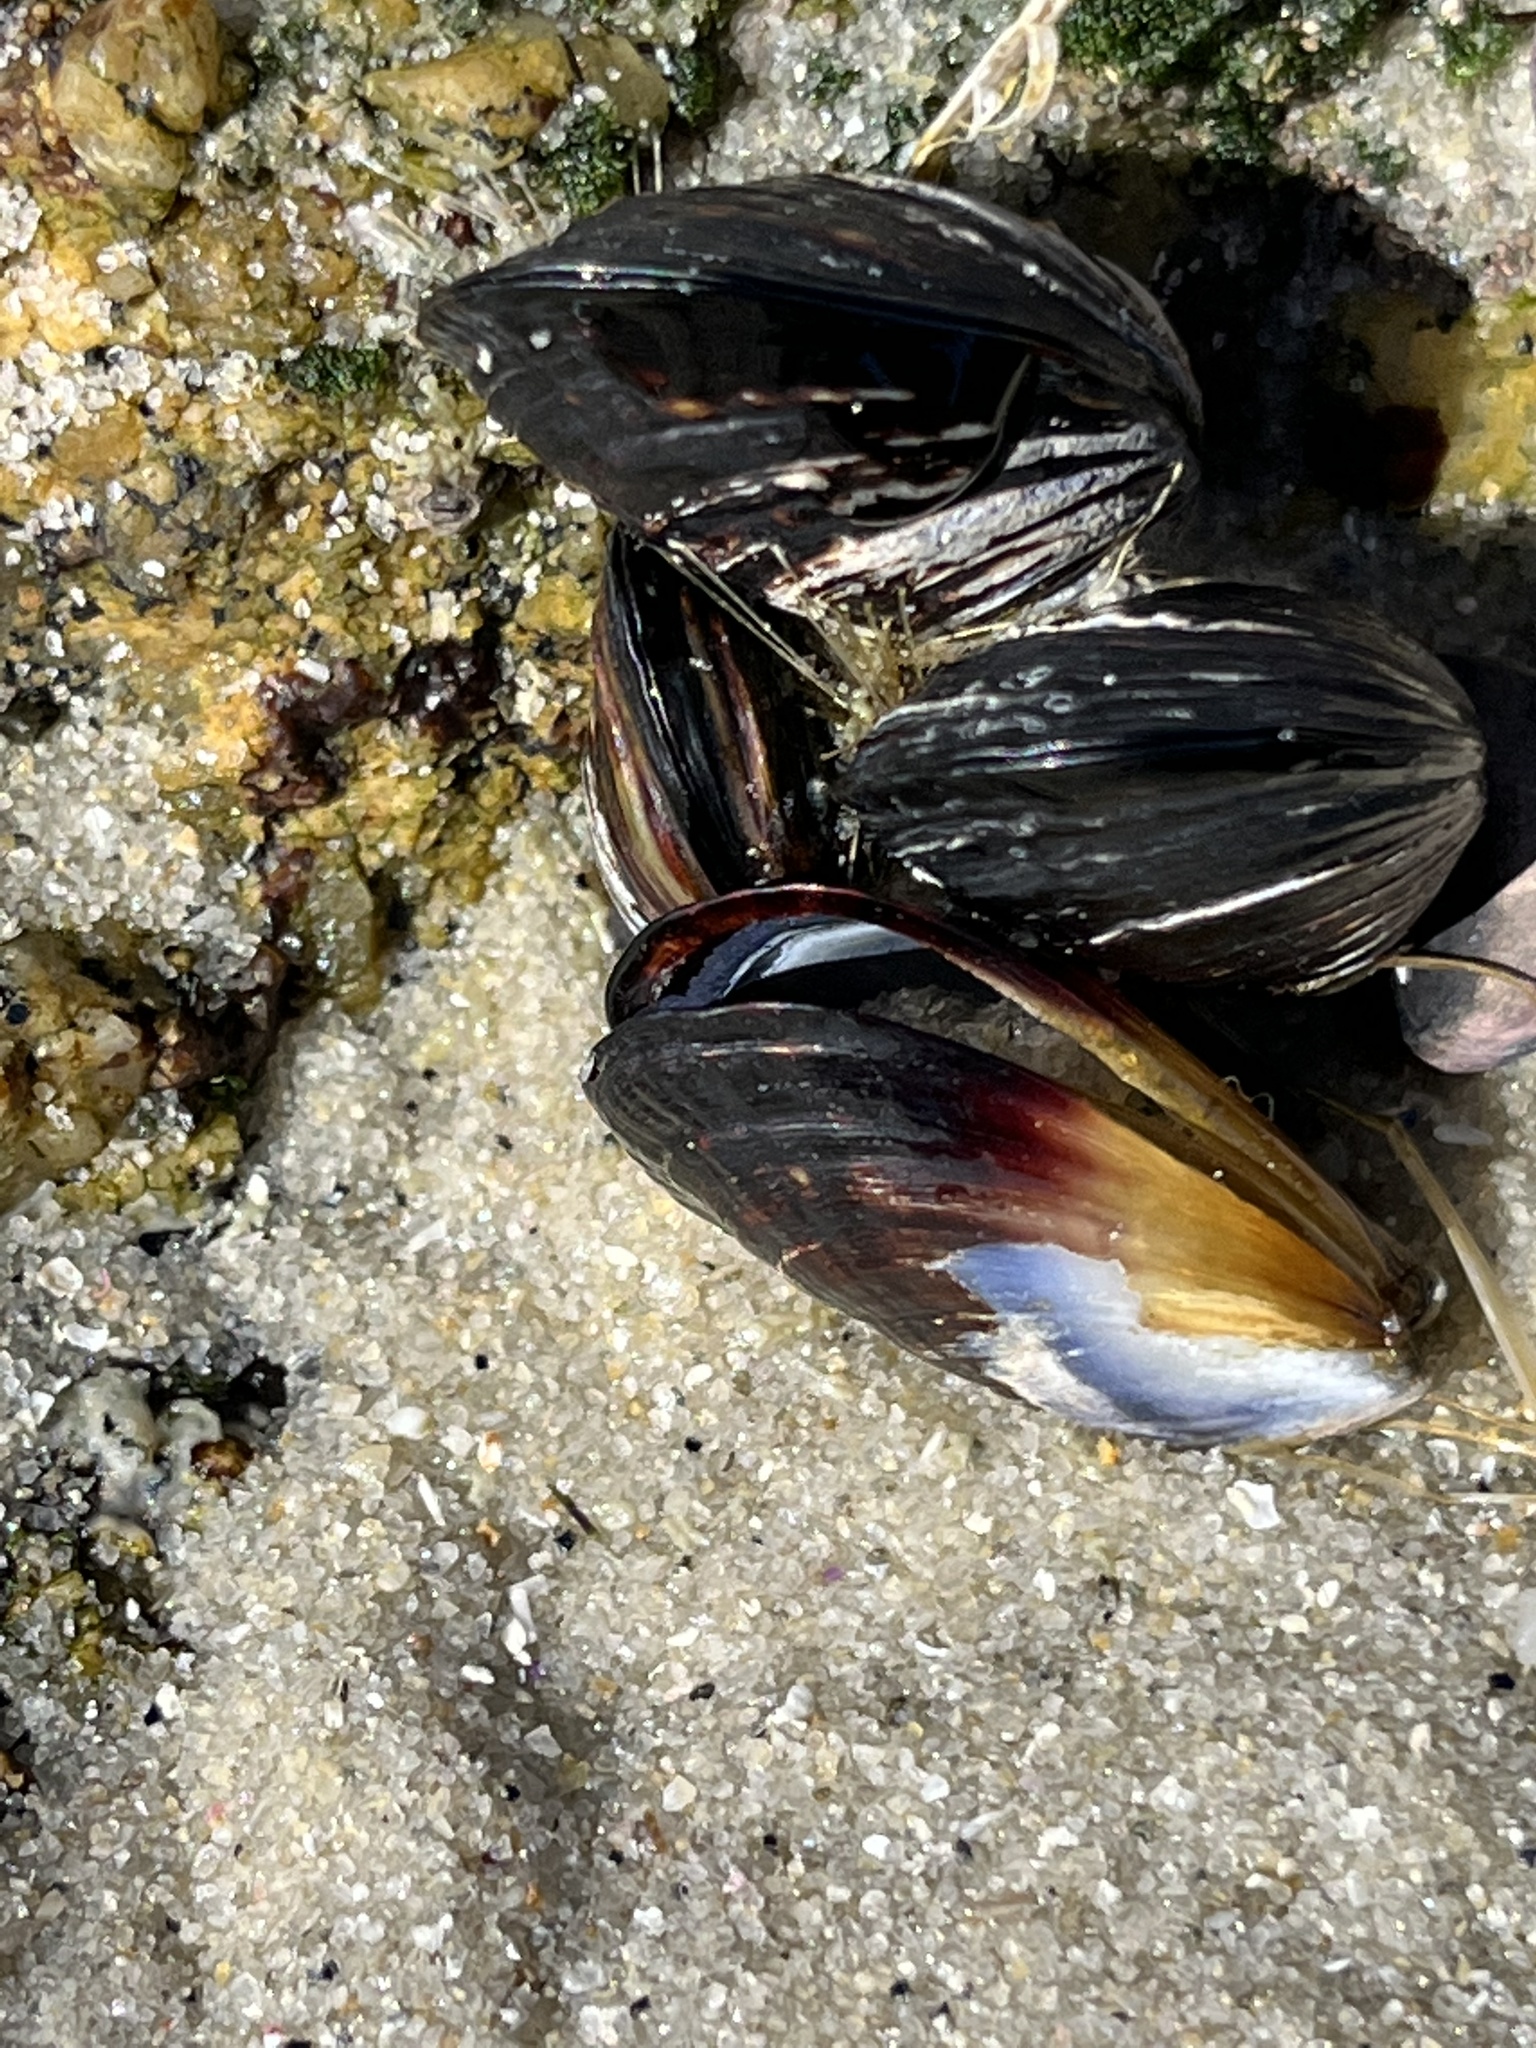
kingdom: Animalia
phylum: Mollusca
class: Bivalvia
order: Mytilida
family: Mytilidae
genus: Mytilus
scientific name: Mytilus californianus
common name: California mussel
